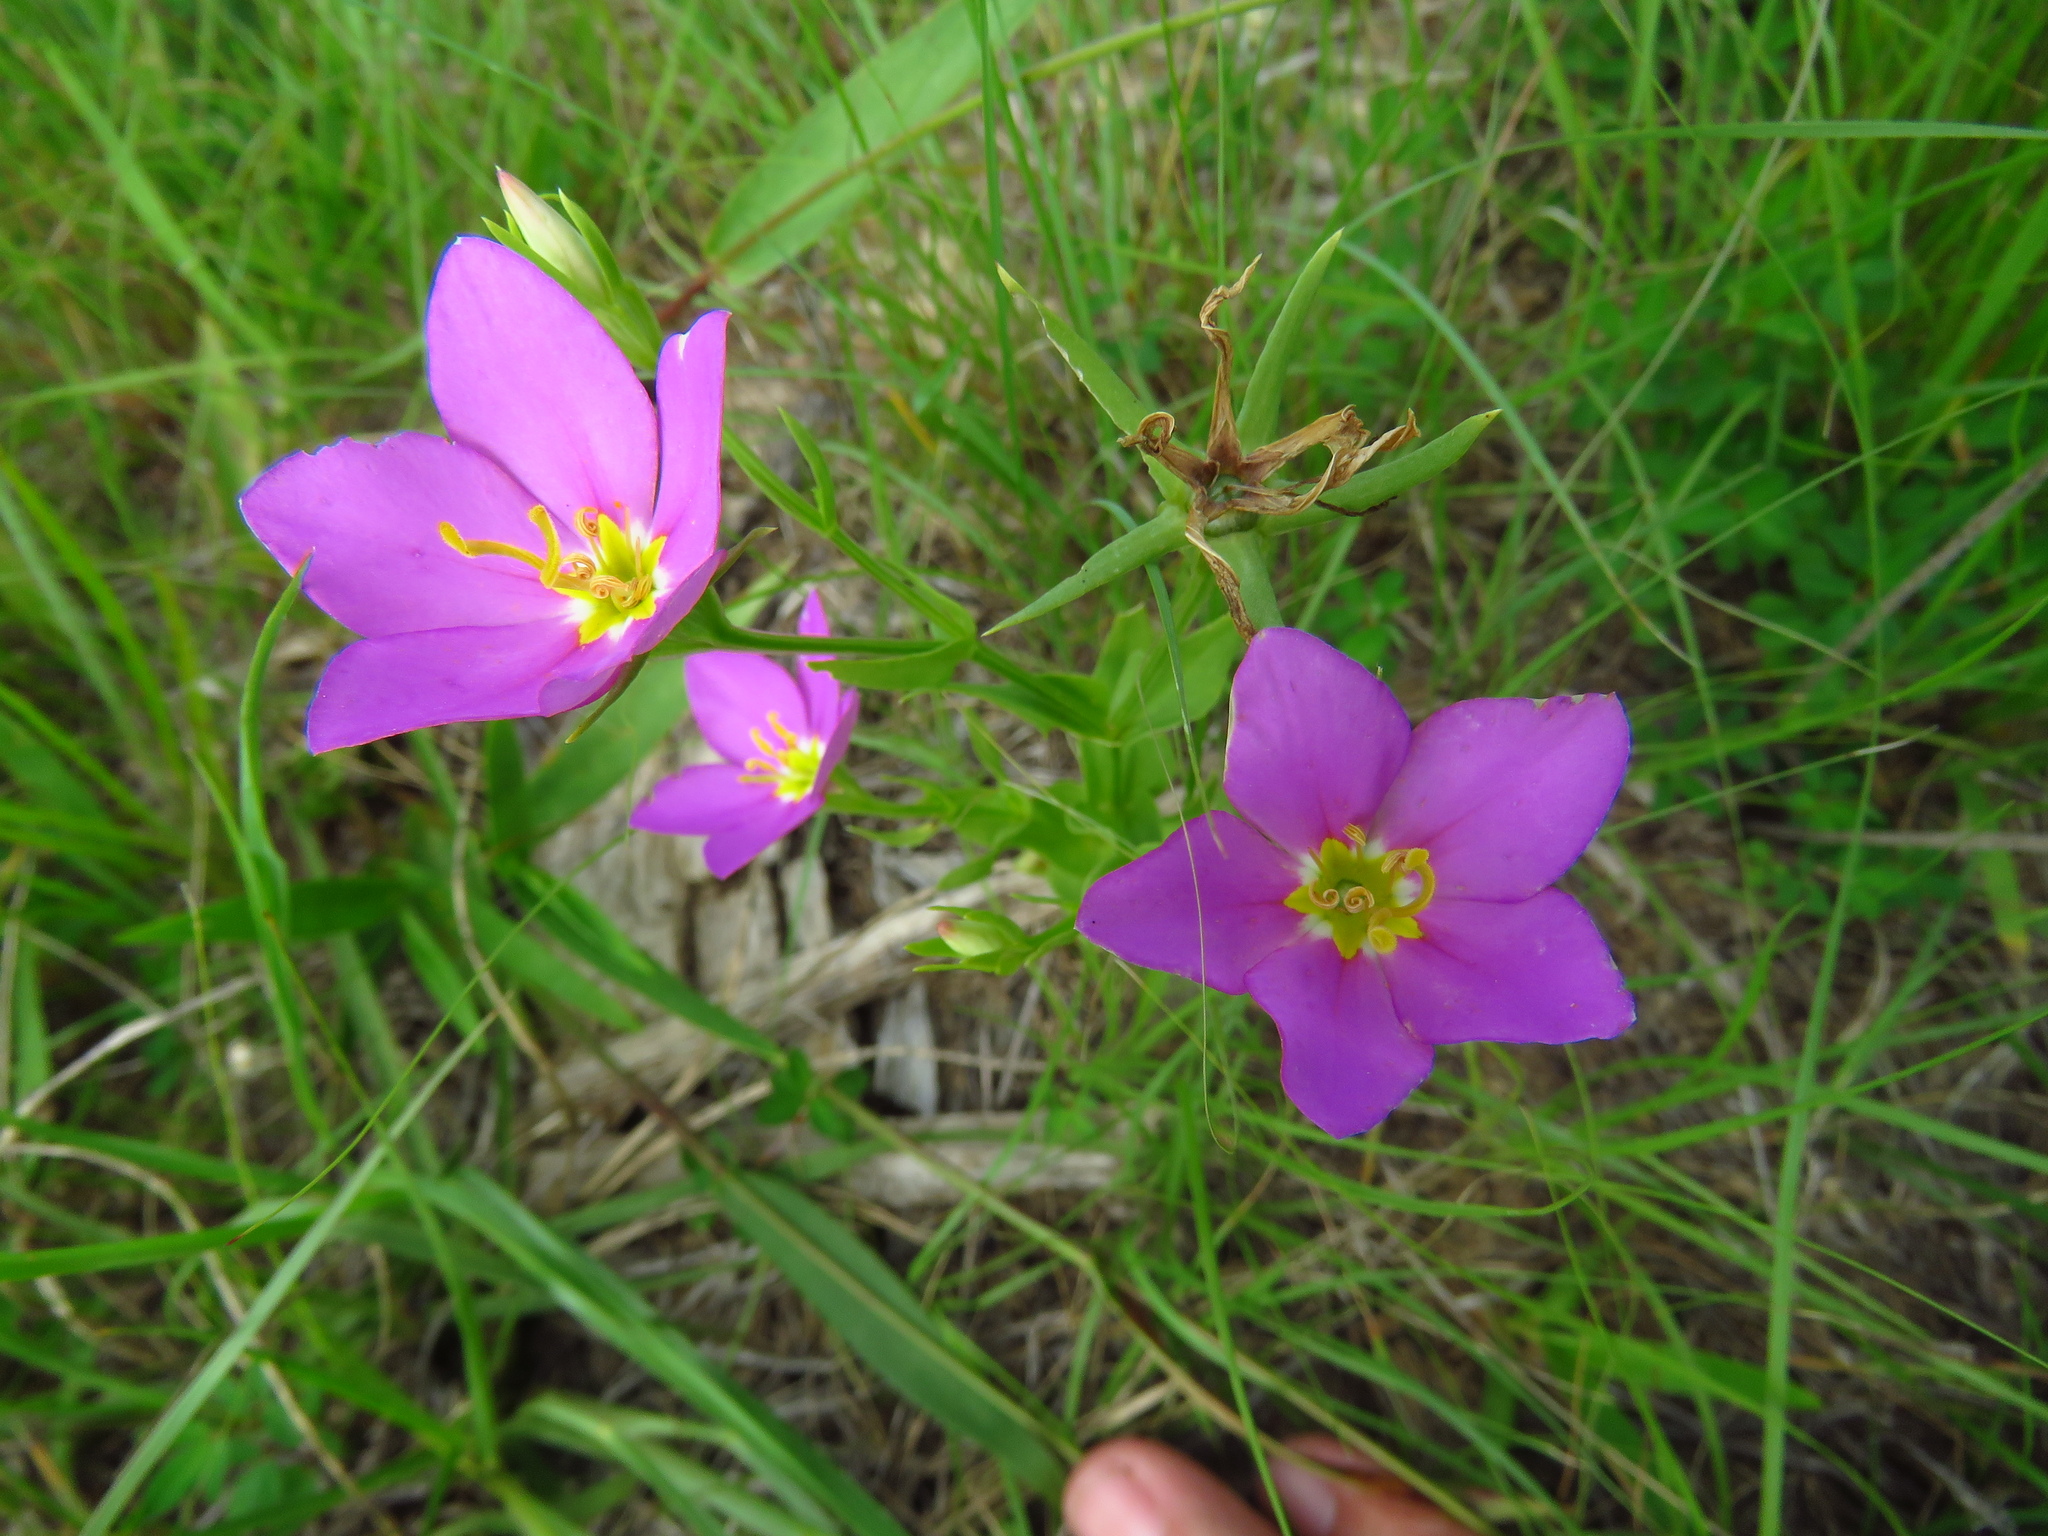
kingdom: Plantae
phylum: Tracheophyta
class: Magnoliopsida
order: Gentianales
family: Gentianaceae
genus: Sabatia
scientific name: Sabatia campestris
